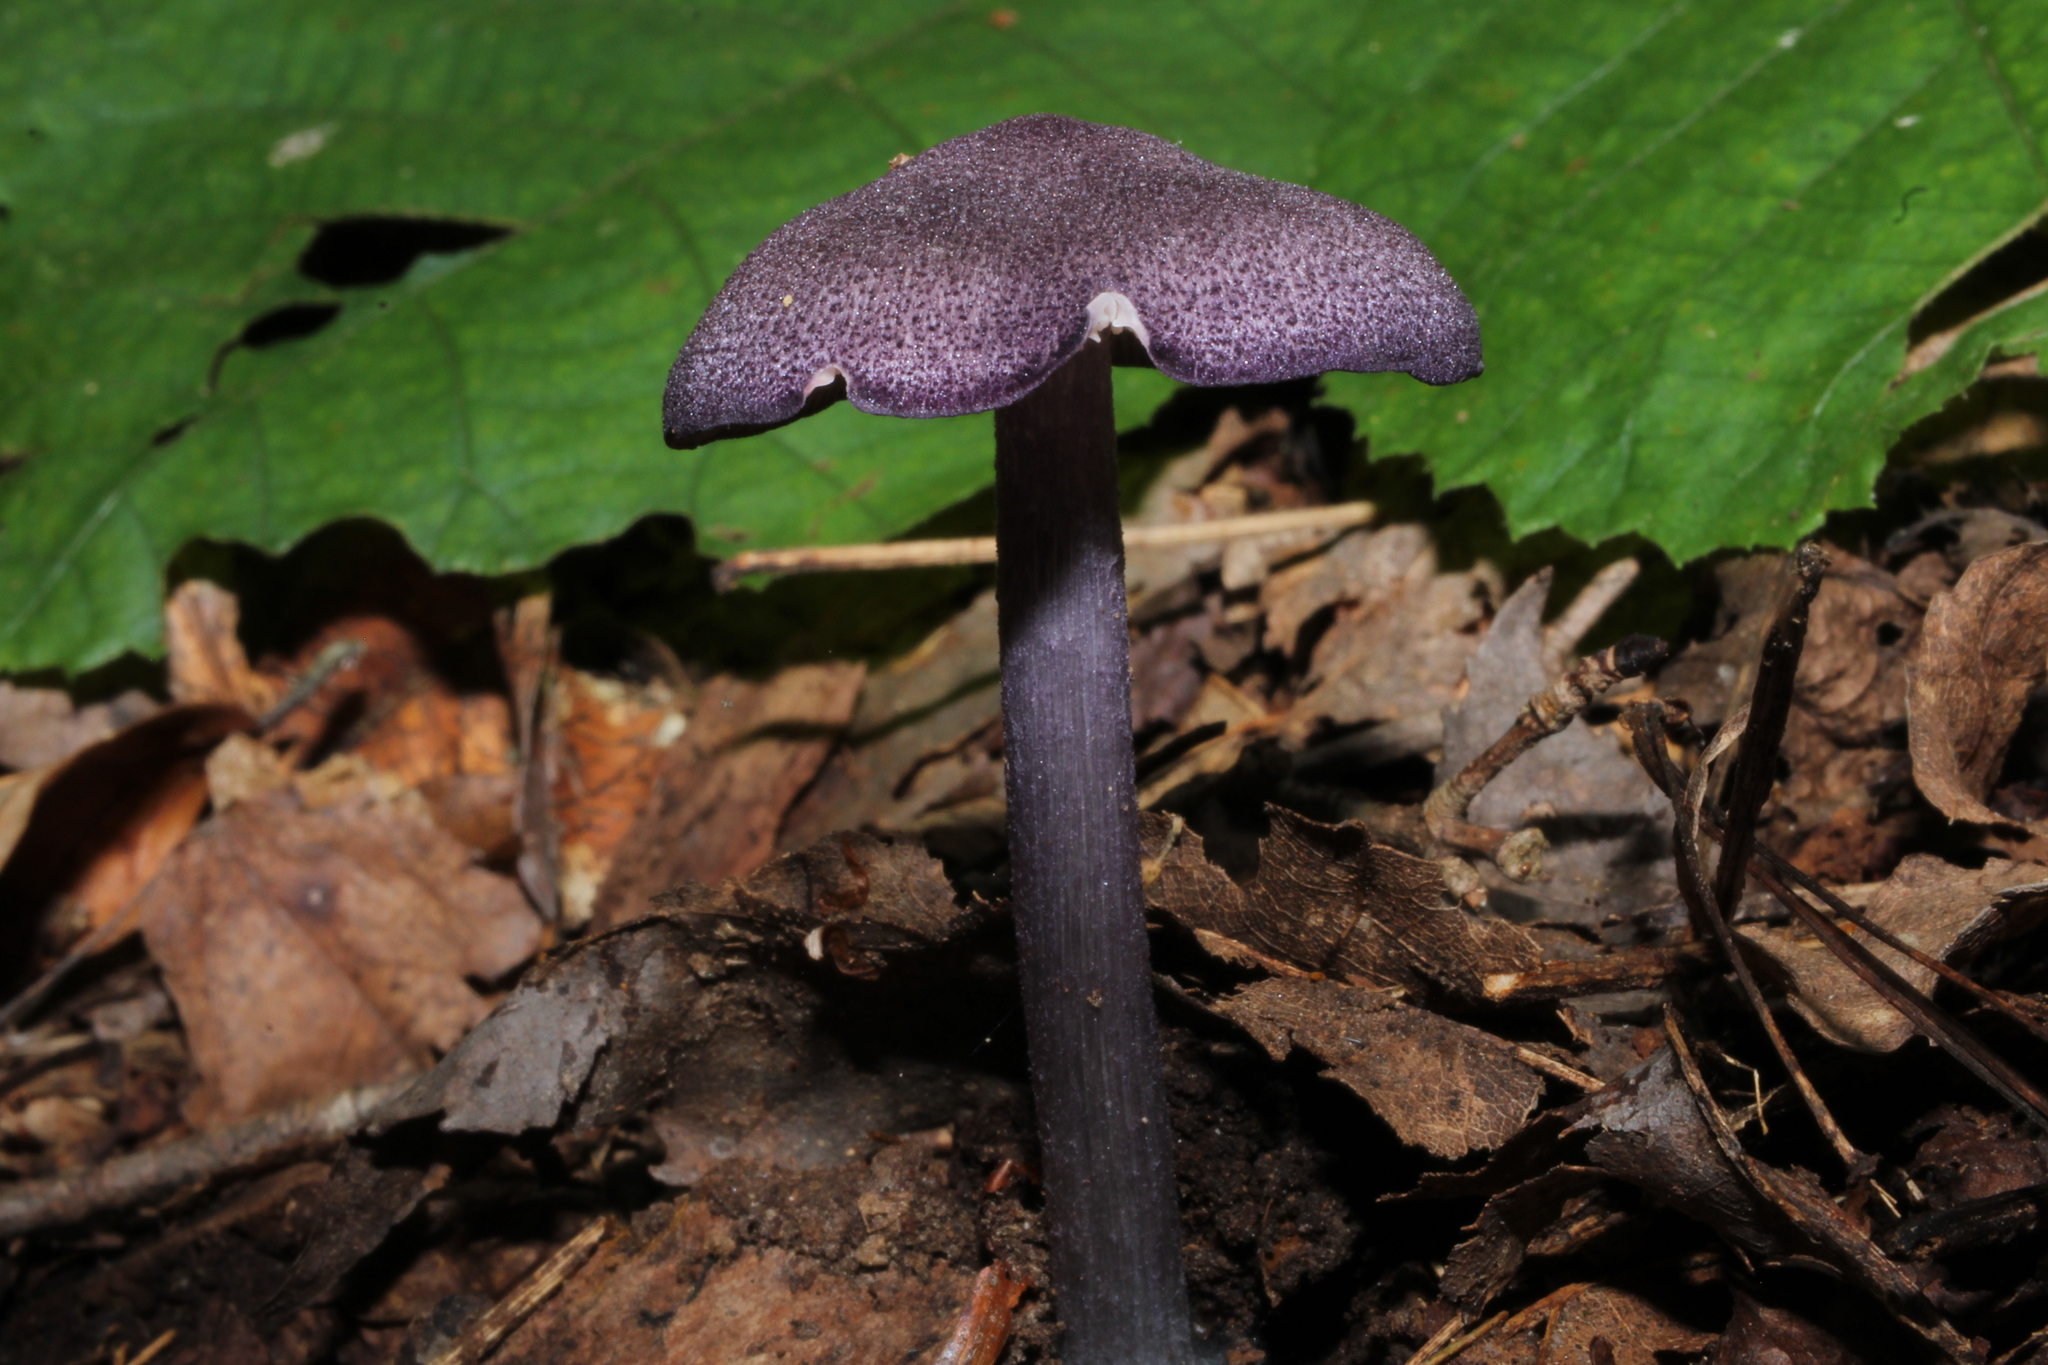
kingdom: Fungi
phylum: Basidiomycota
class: Agaricomycetes
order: Agaricales
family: Cortinariaceae
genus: Cortinarius
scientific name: Cortinarius violaceus
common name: Violet webcap
